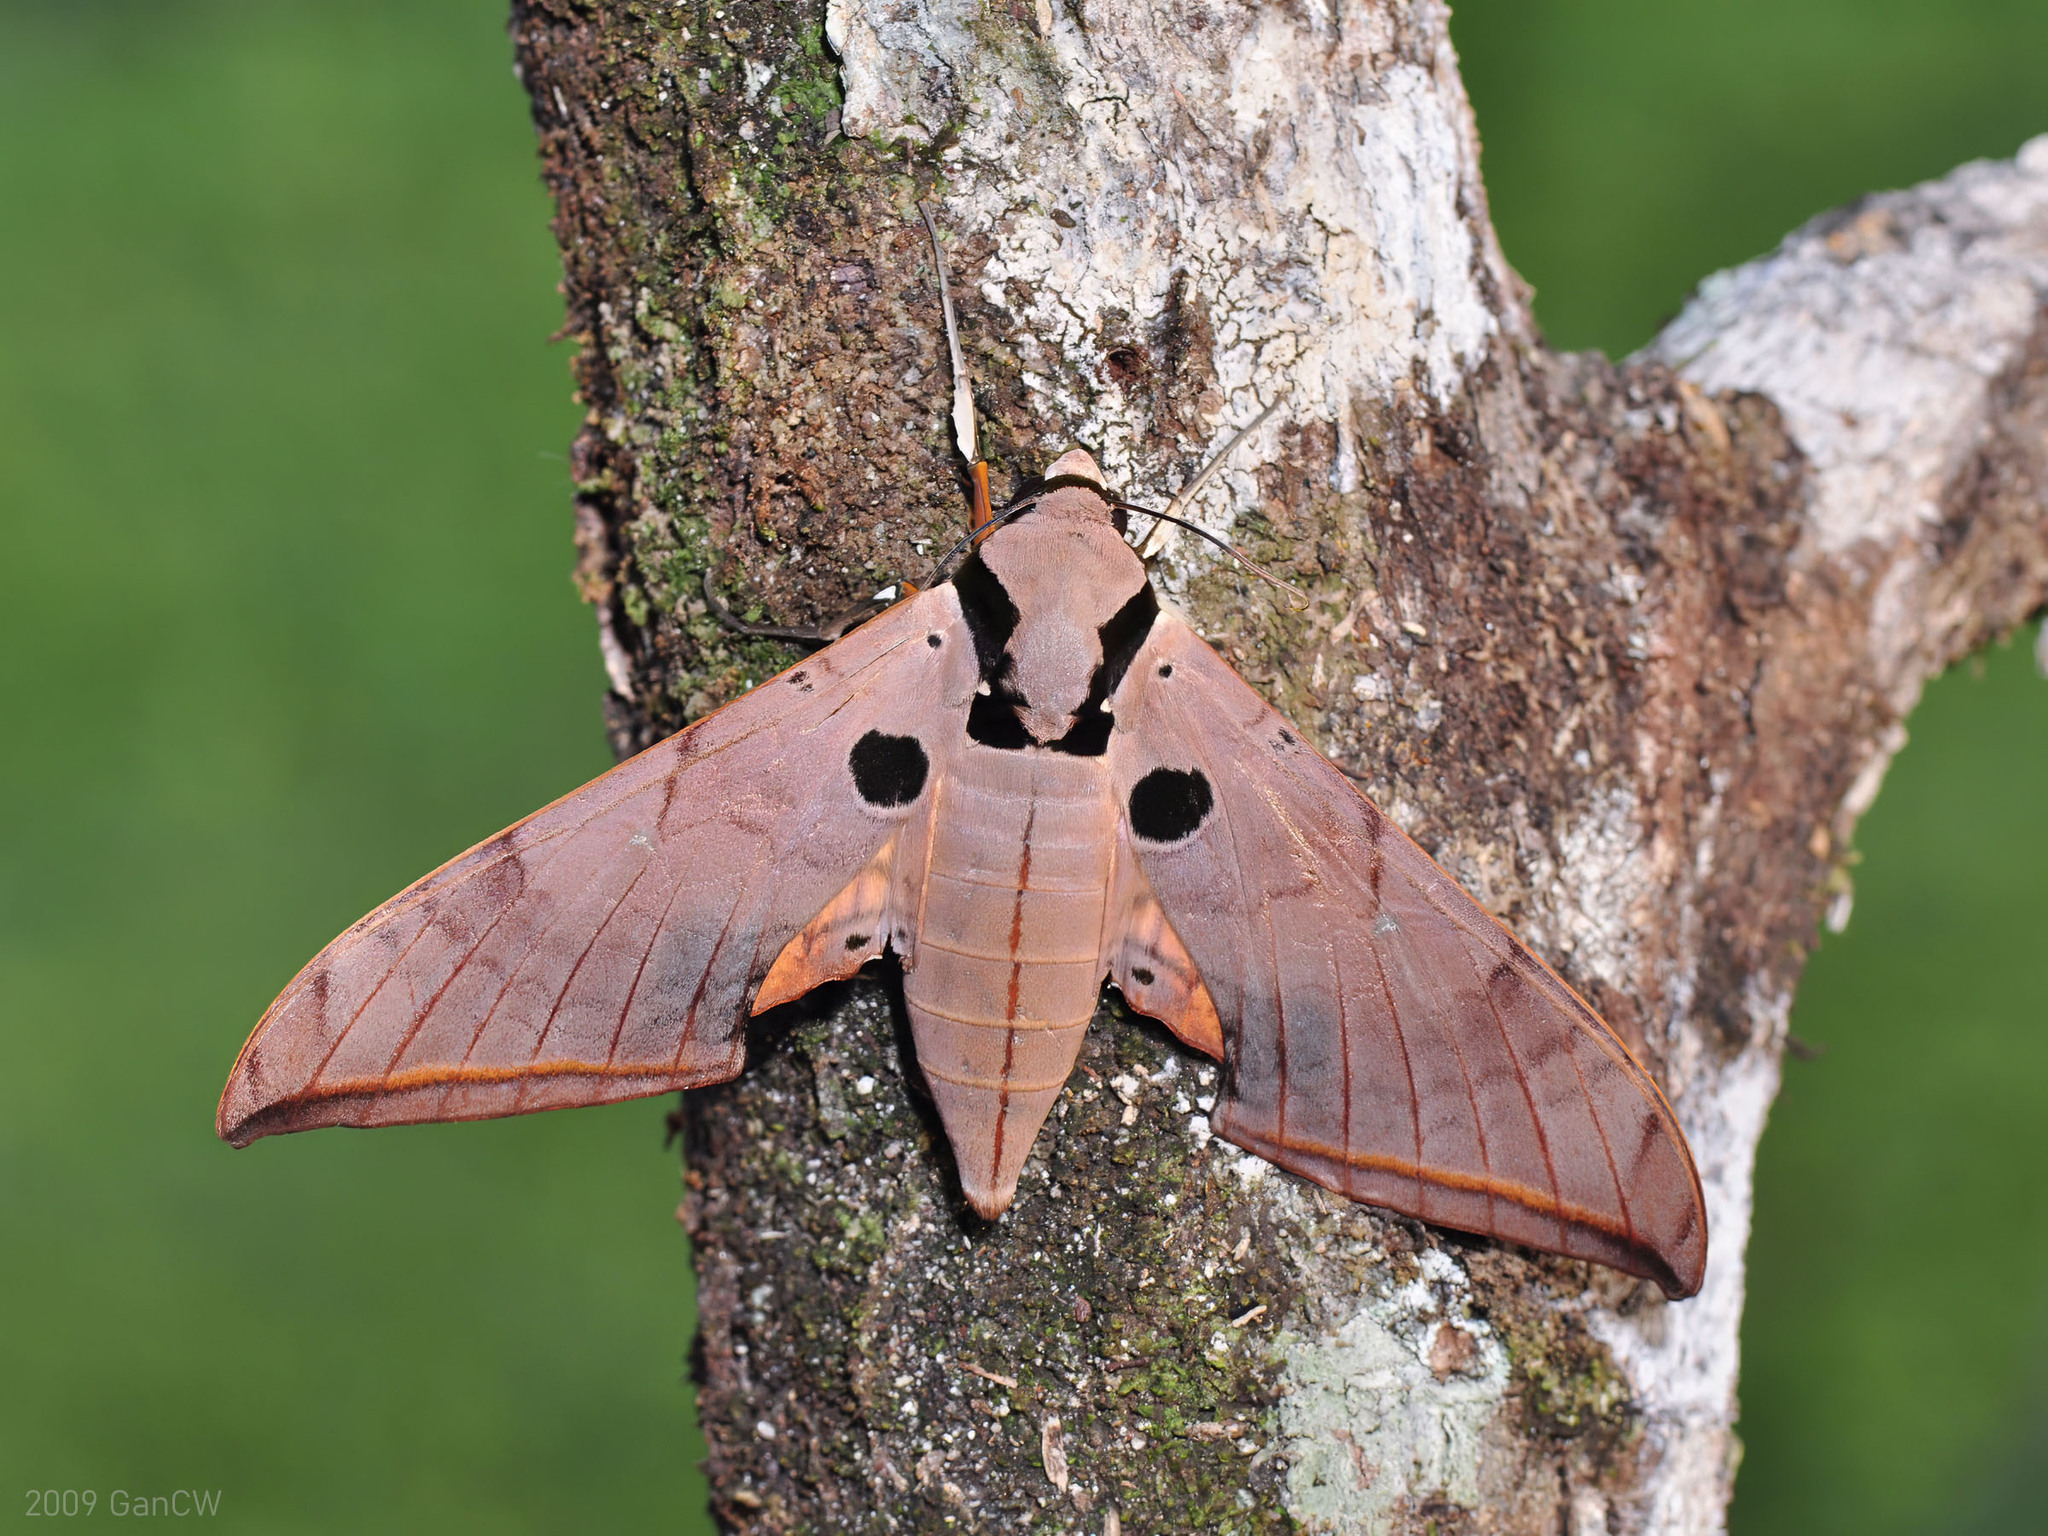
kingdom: Animalia
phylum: Arthropoda
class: Insecta
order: Lepidoptera
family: Sphingidae
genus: Ambulyx
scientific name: Ambulyx obliterata
